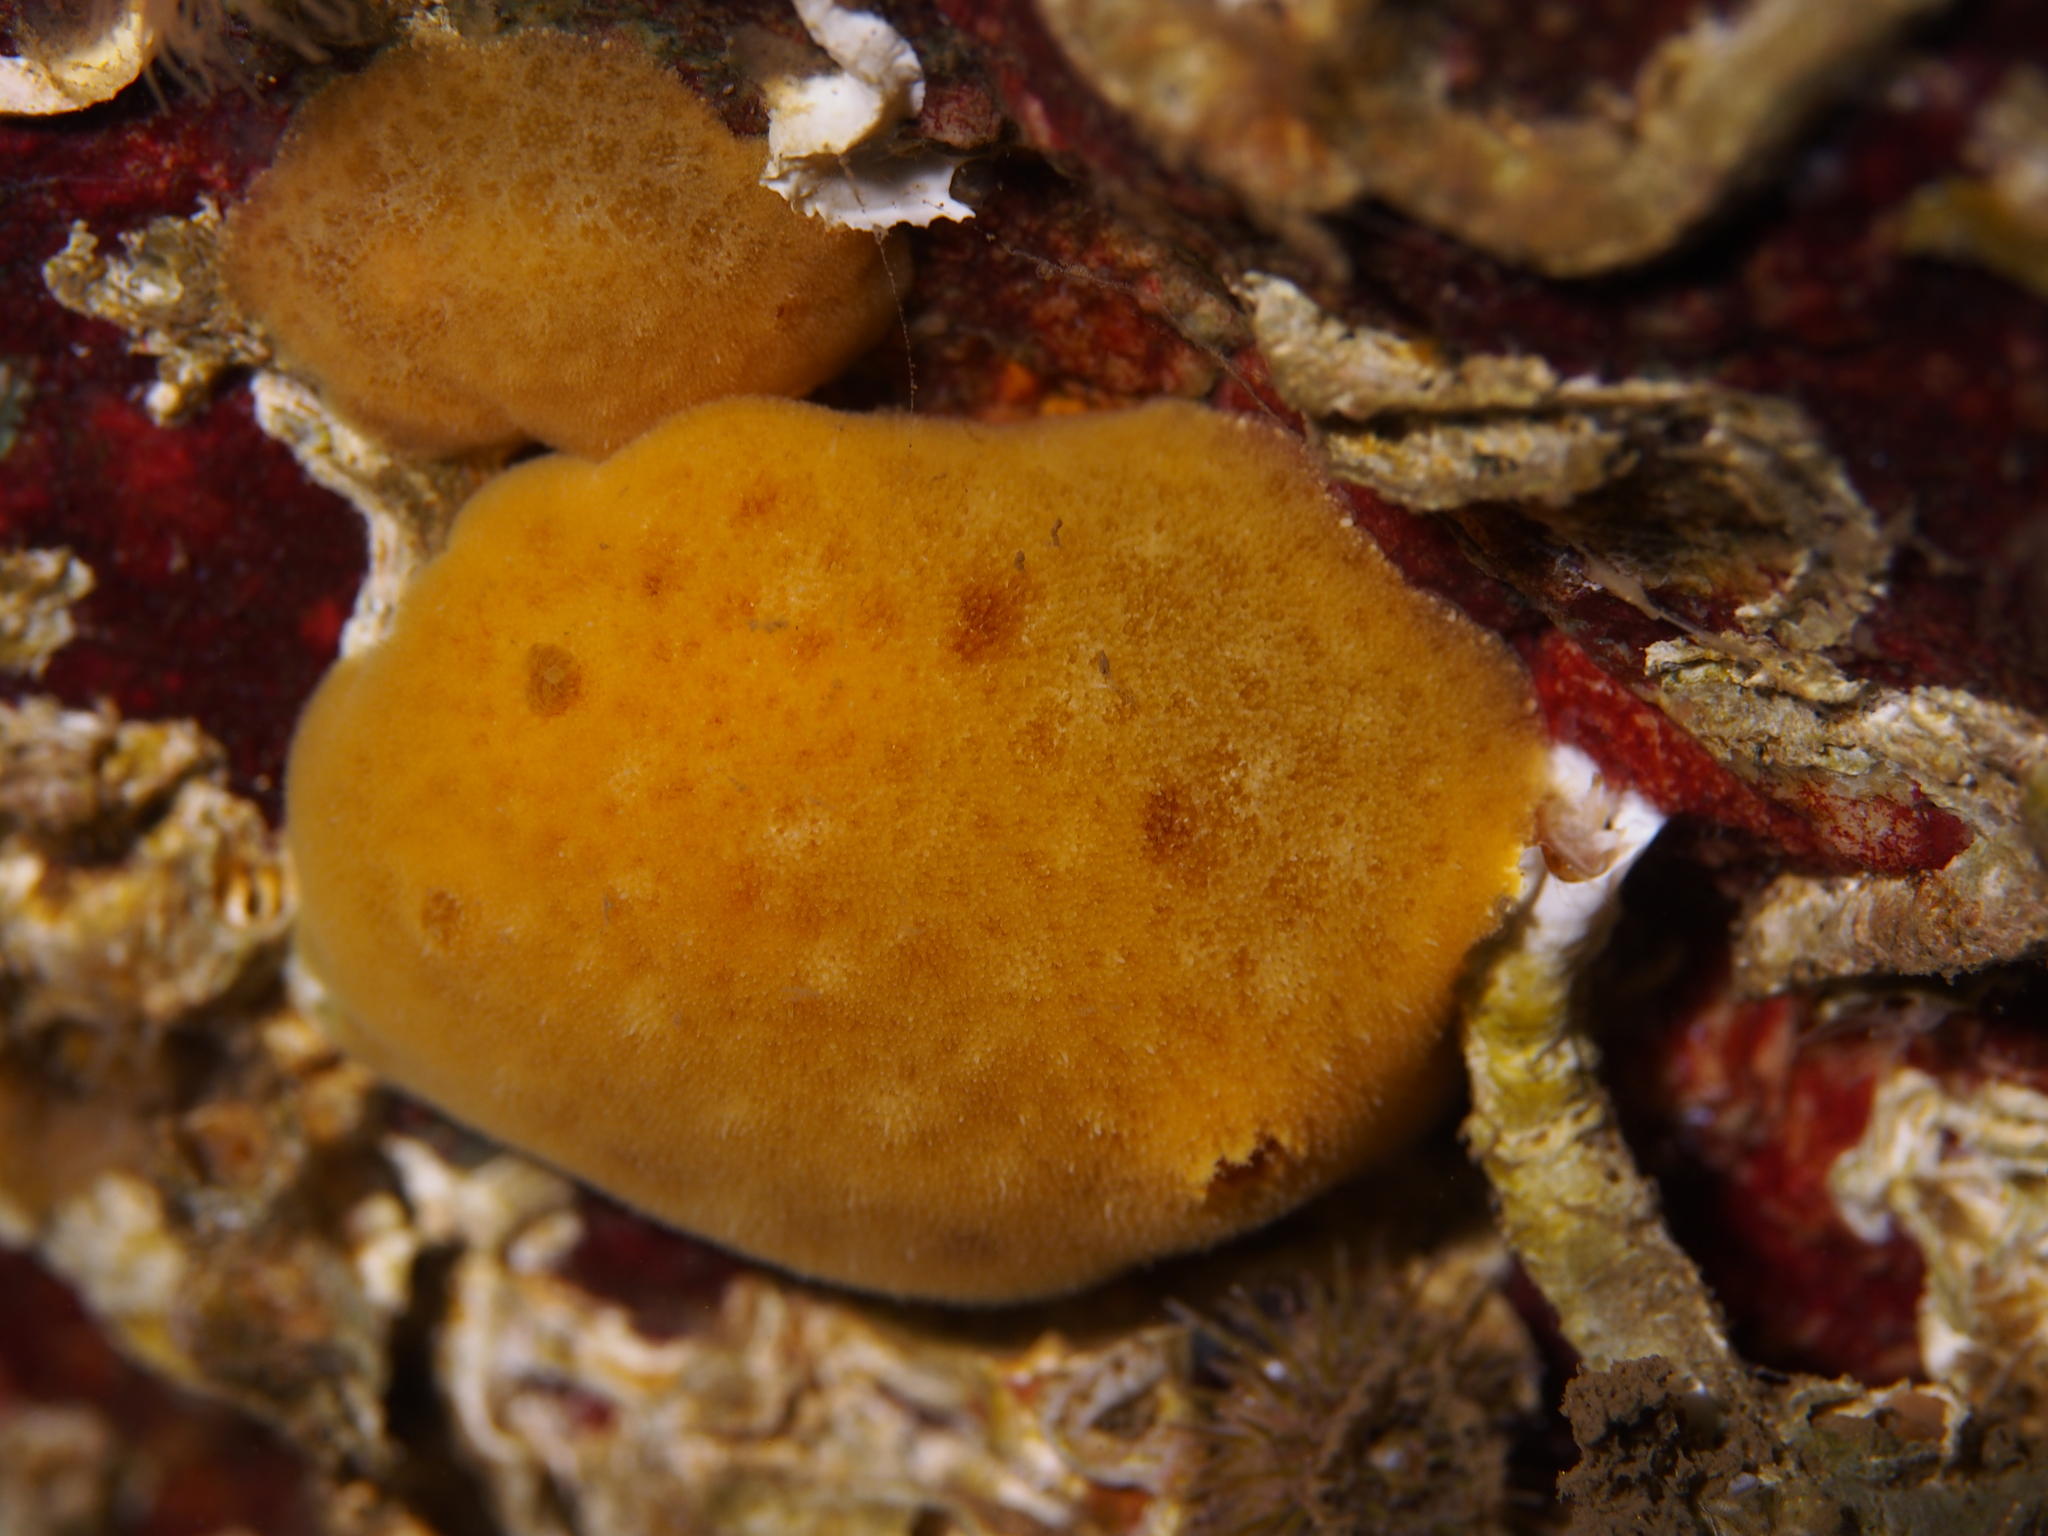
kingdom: Animalia
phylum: Mollusca
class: Gastropoda
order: Nudibranchia
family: Discodorididae
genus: Jorunna
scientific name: Jorunna tomentosa
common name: Grey sea slug
